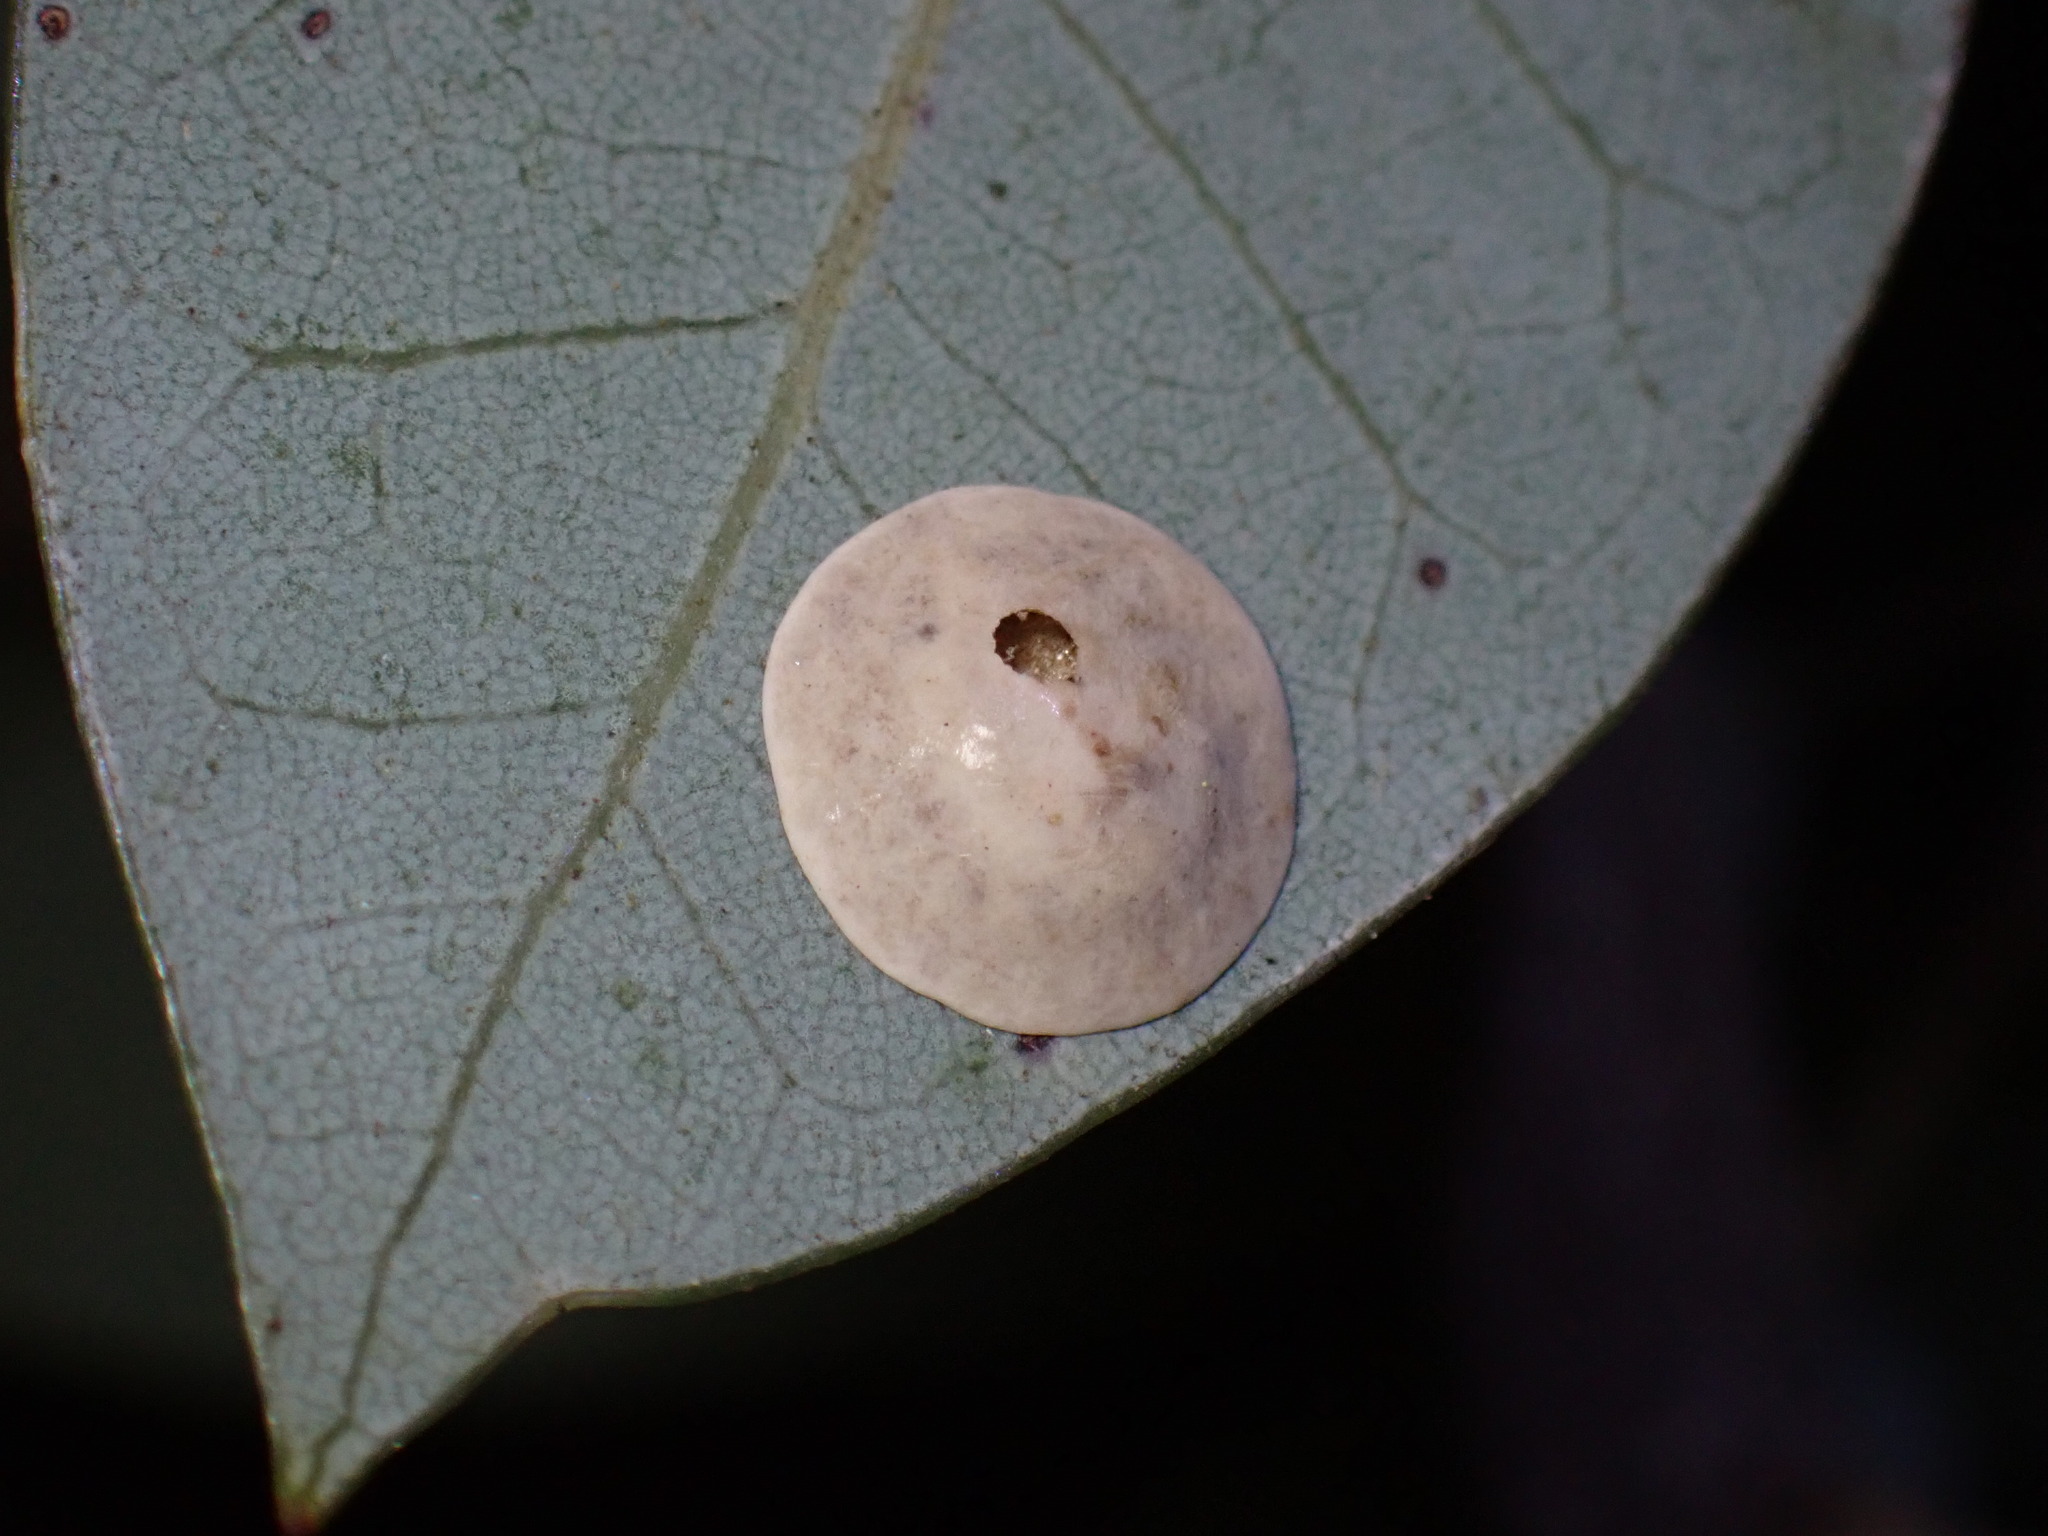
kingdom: Animalia
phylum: Arthropoda
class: Insecta
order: Hymenoptera
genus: Paracraspis
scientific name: Paracraspis
